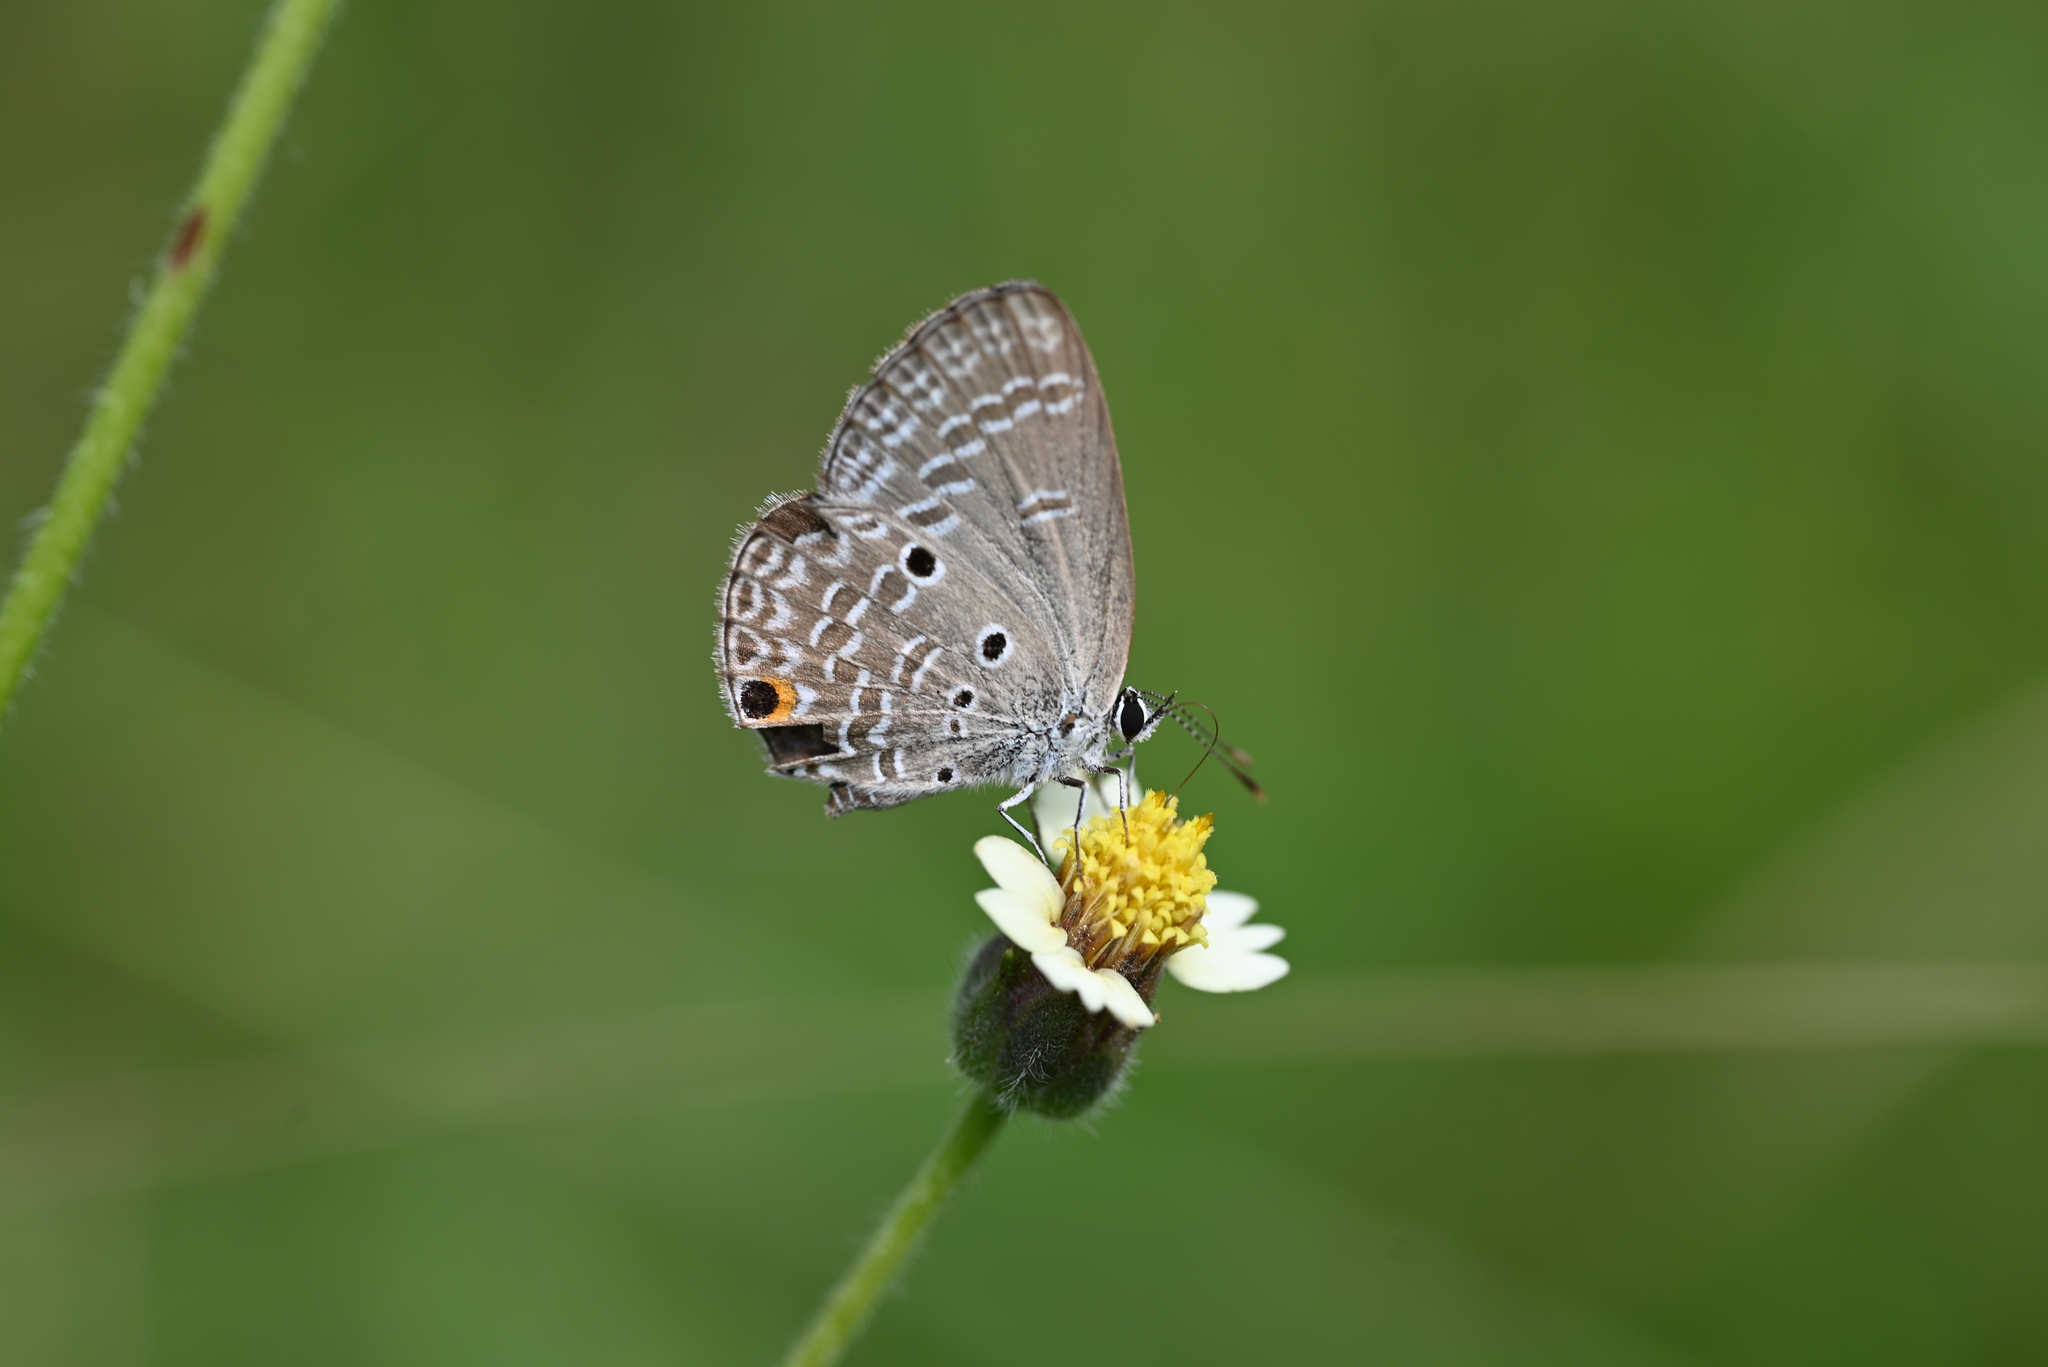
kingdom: Animalia
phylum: Arthropoda
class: Insecta
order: Lepidoptera
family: Lycaenidae
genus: Luthrodes
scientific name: Luthrodes pandava
